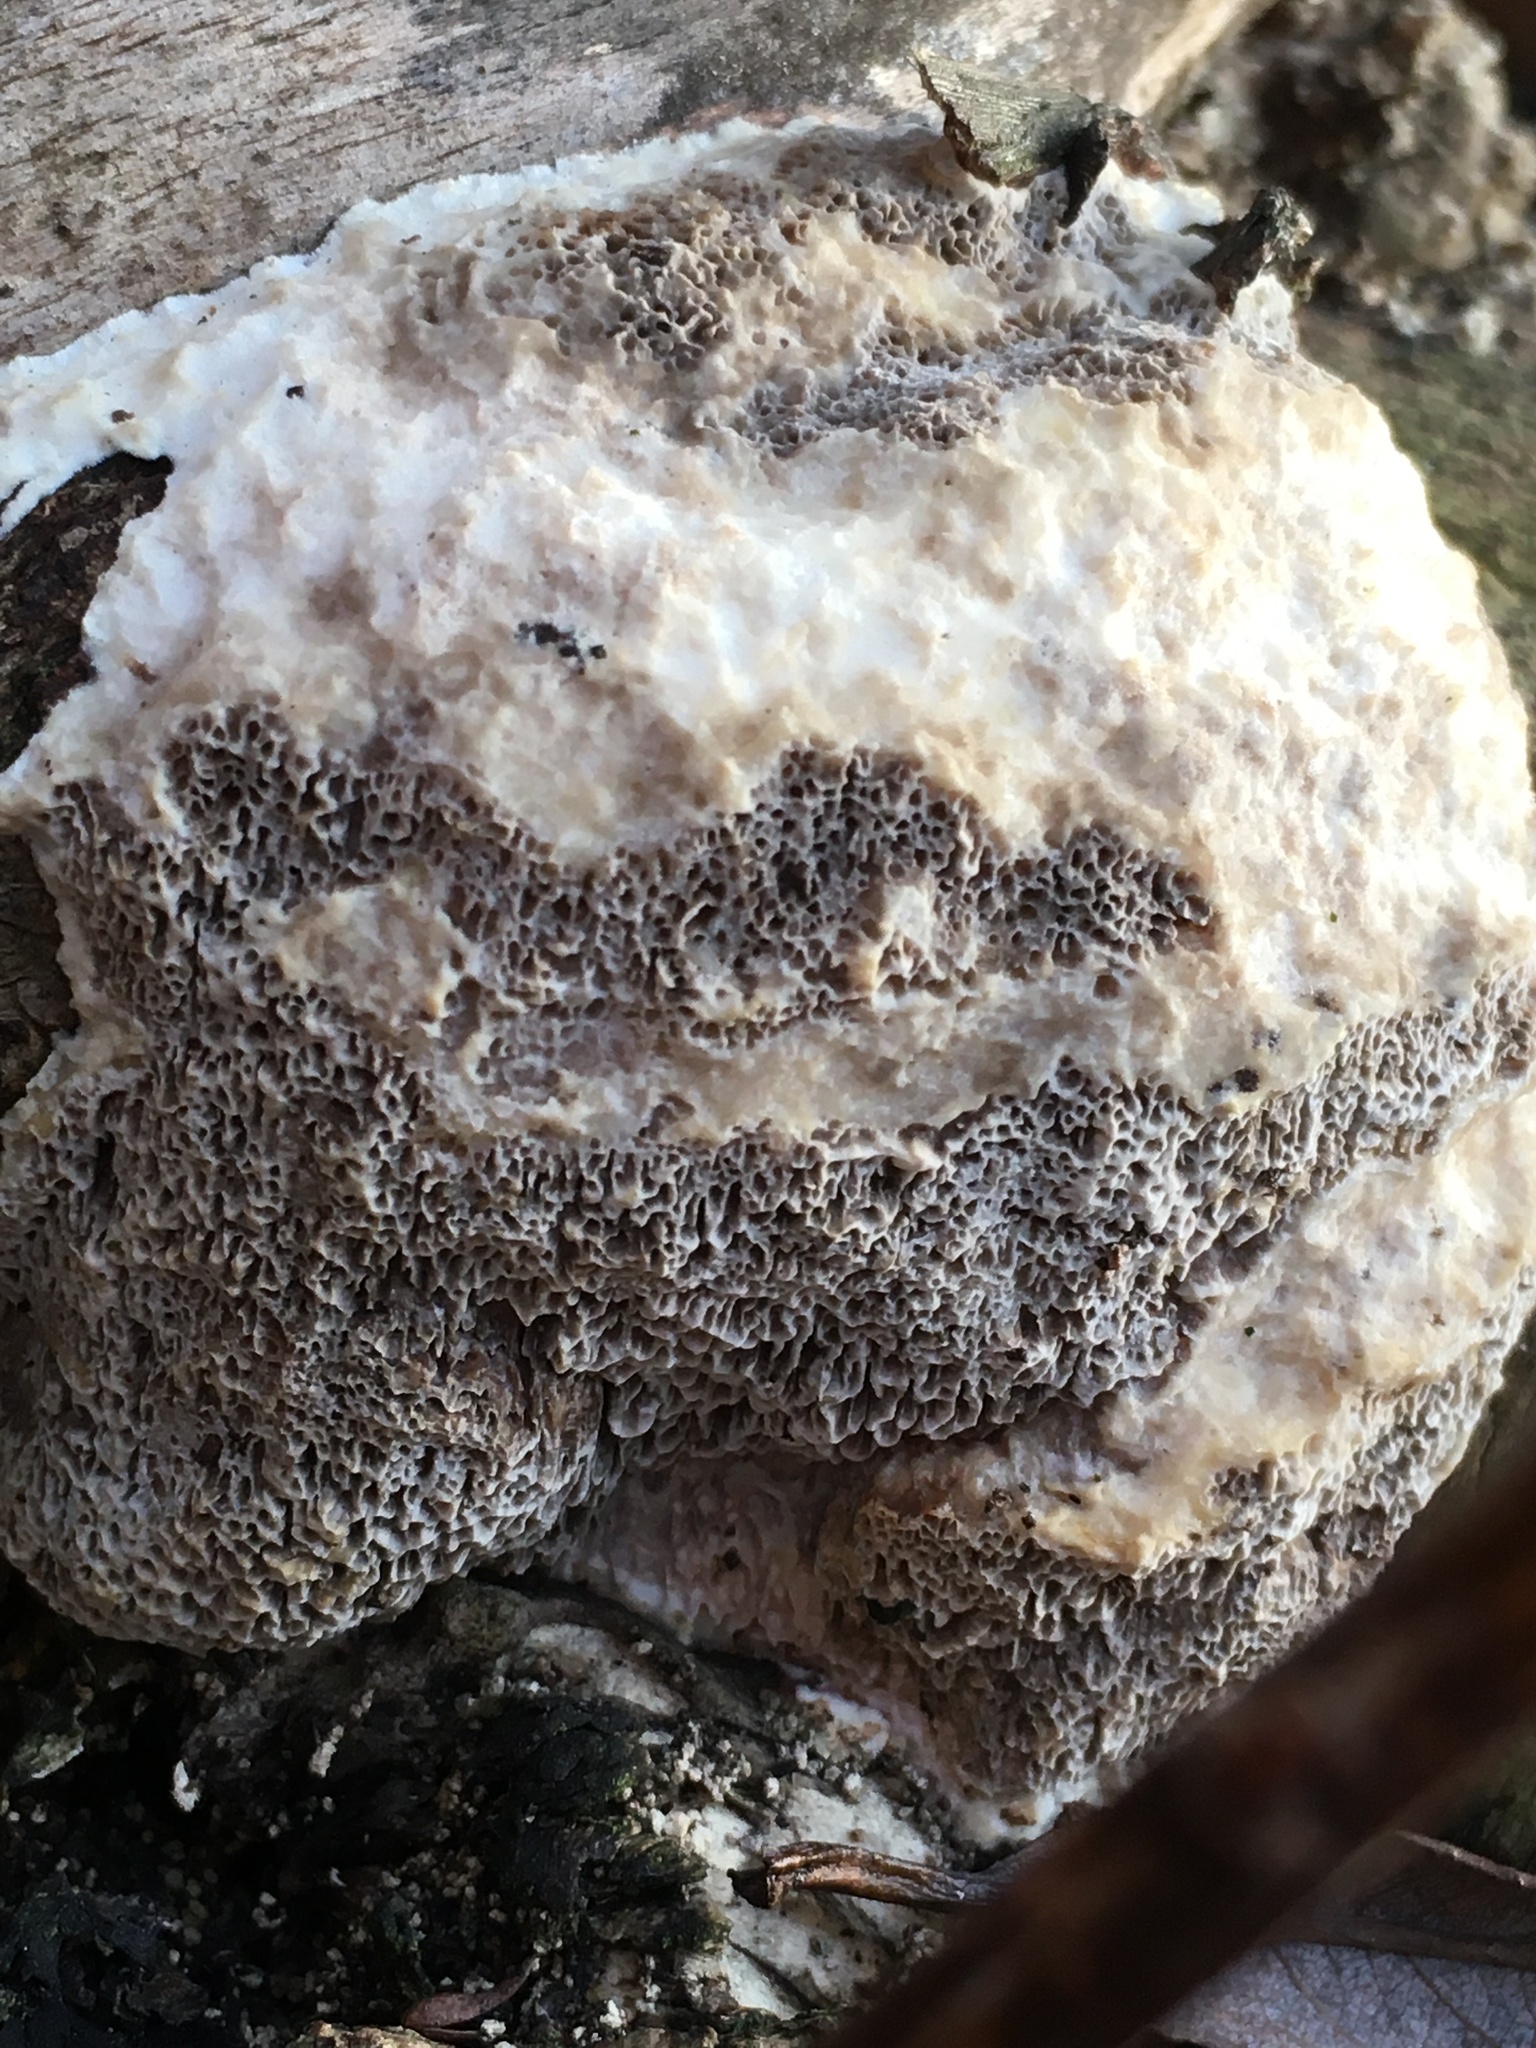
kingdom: Fungi
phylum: Basidiomycota
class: Agaricomycetes
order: Polyporales
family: Polyporaceae
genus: Trametes
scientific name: Trametes suaveolens
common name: Fragrant bracket
